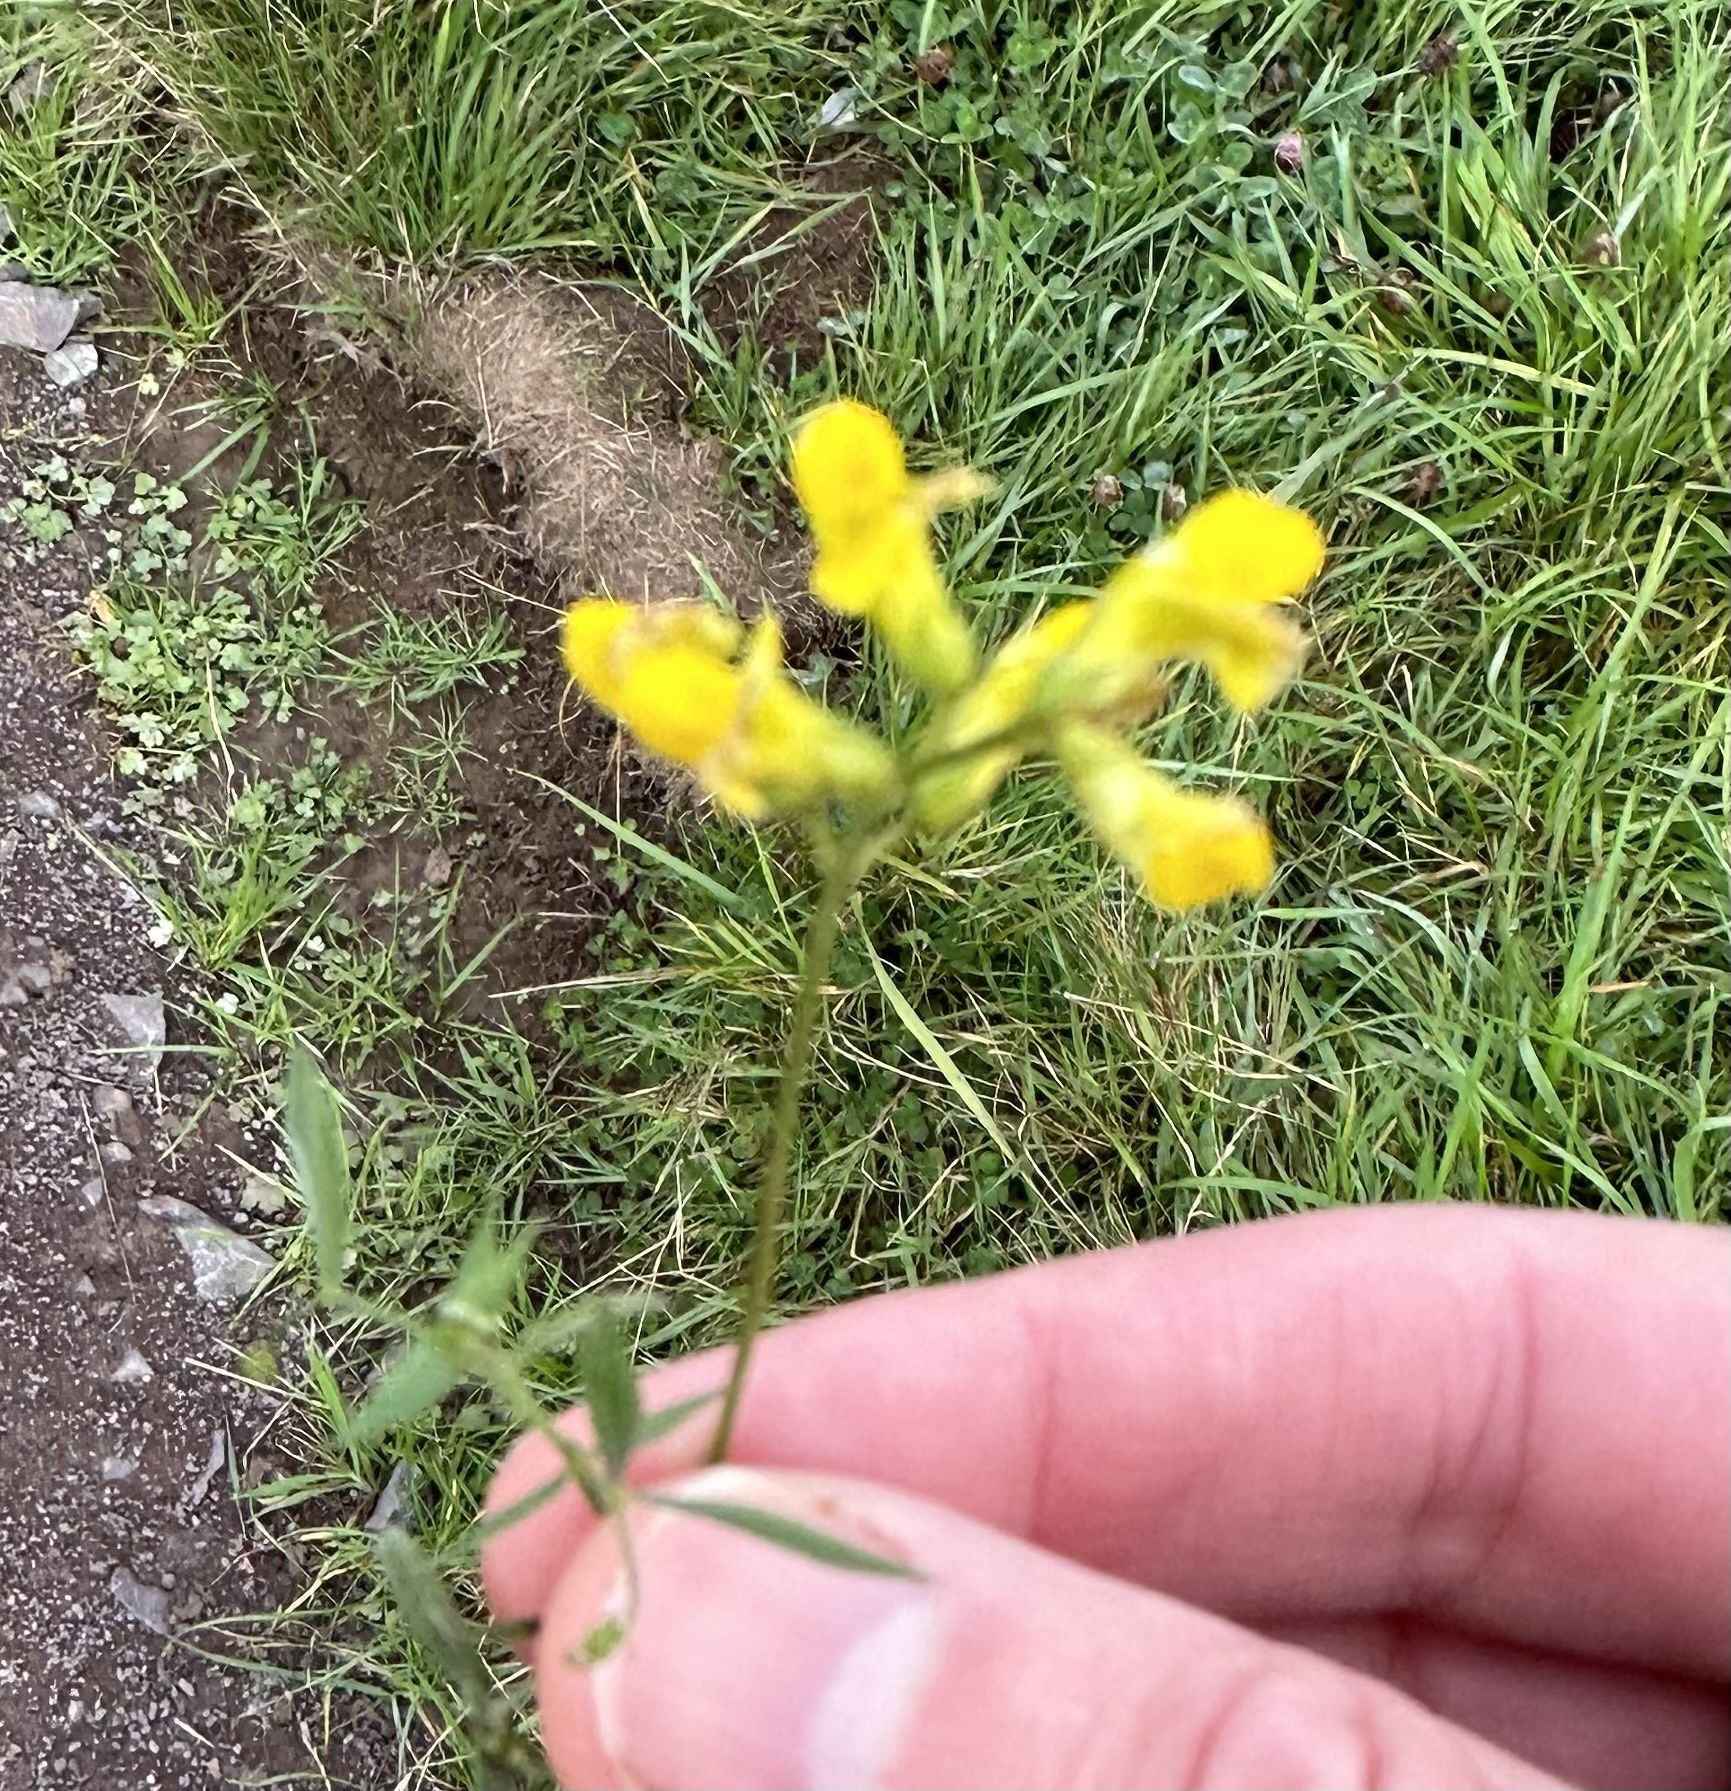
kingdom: Plantae
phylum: Tracheophyta
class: Magnoliopsida
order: Fabales
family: Fabaceae
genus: Lathyrus
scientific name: Lathyrus pratensis
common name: Meadow vetchling
